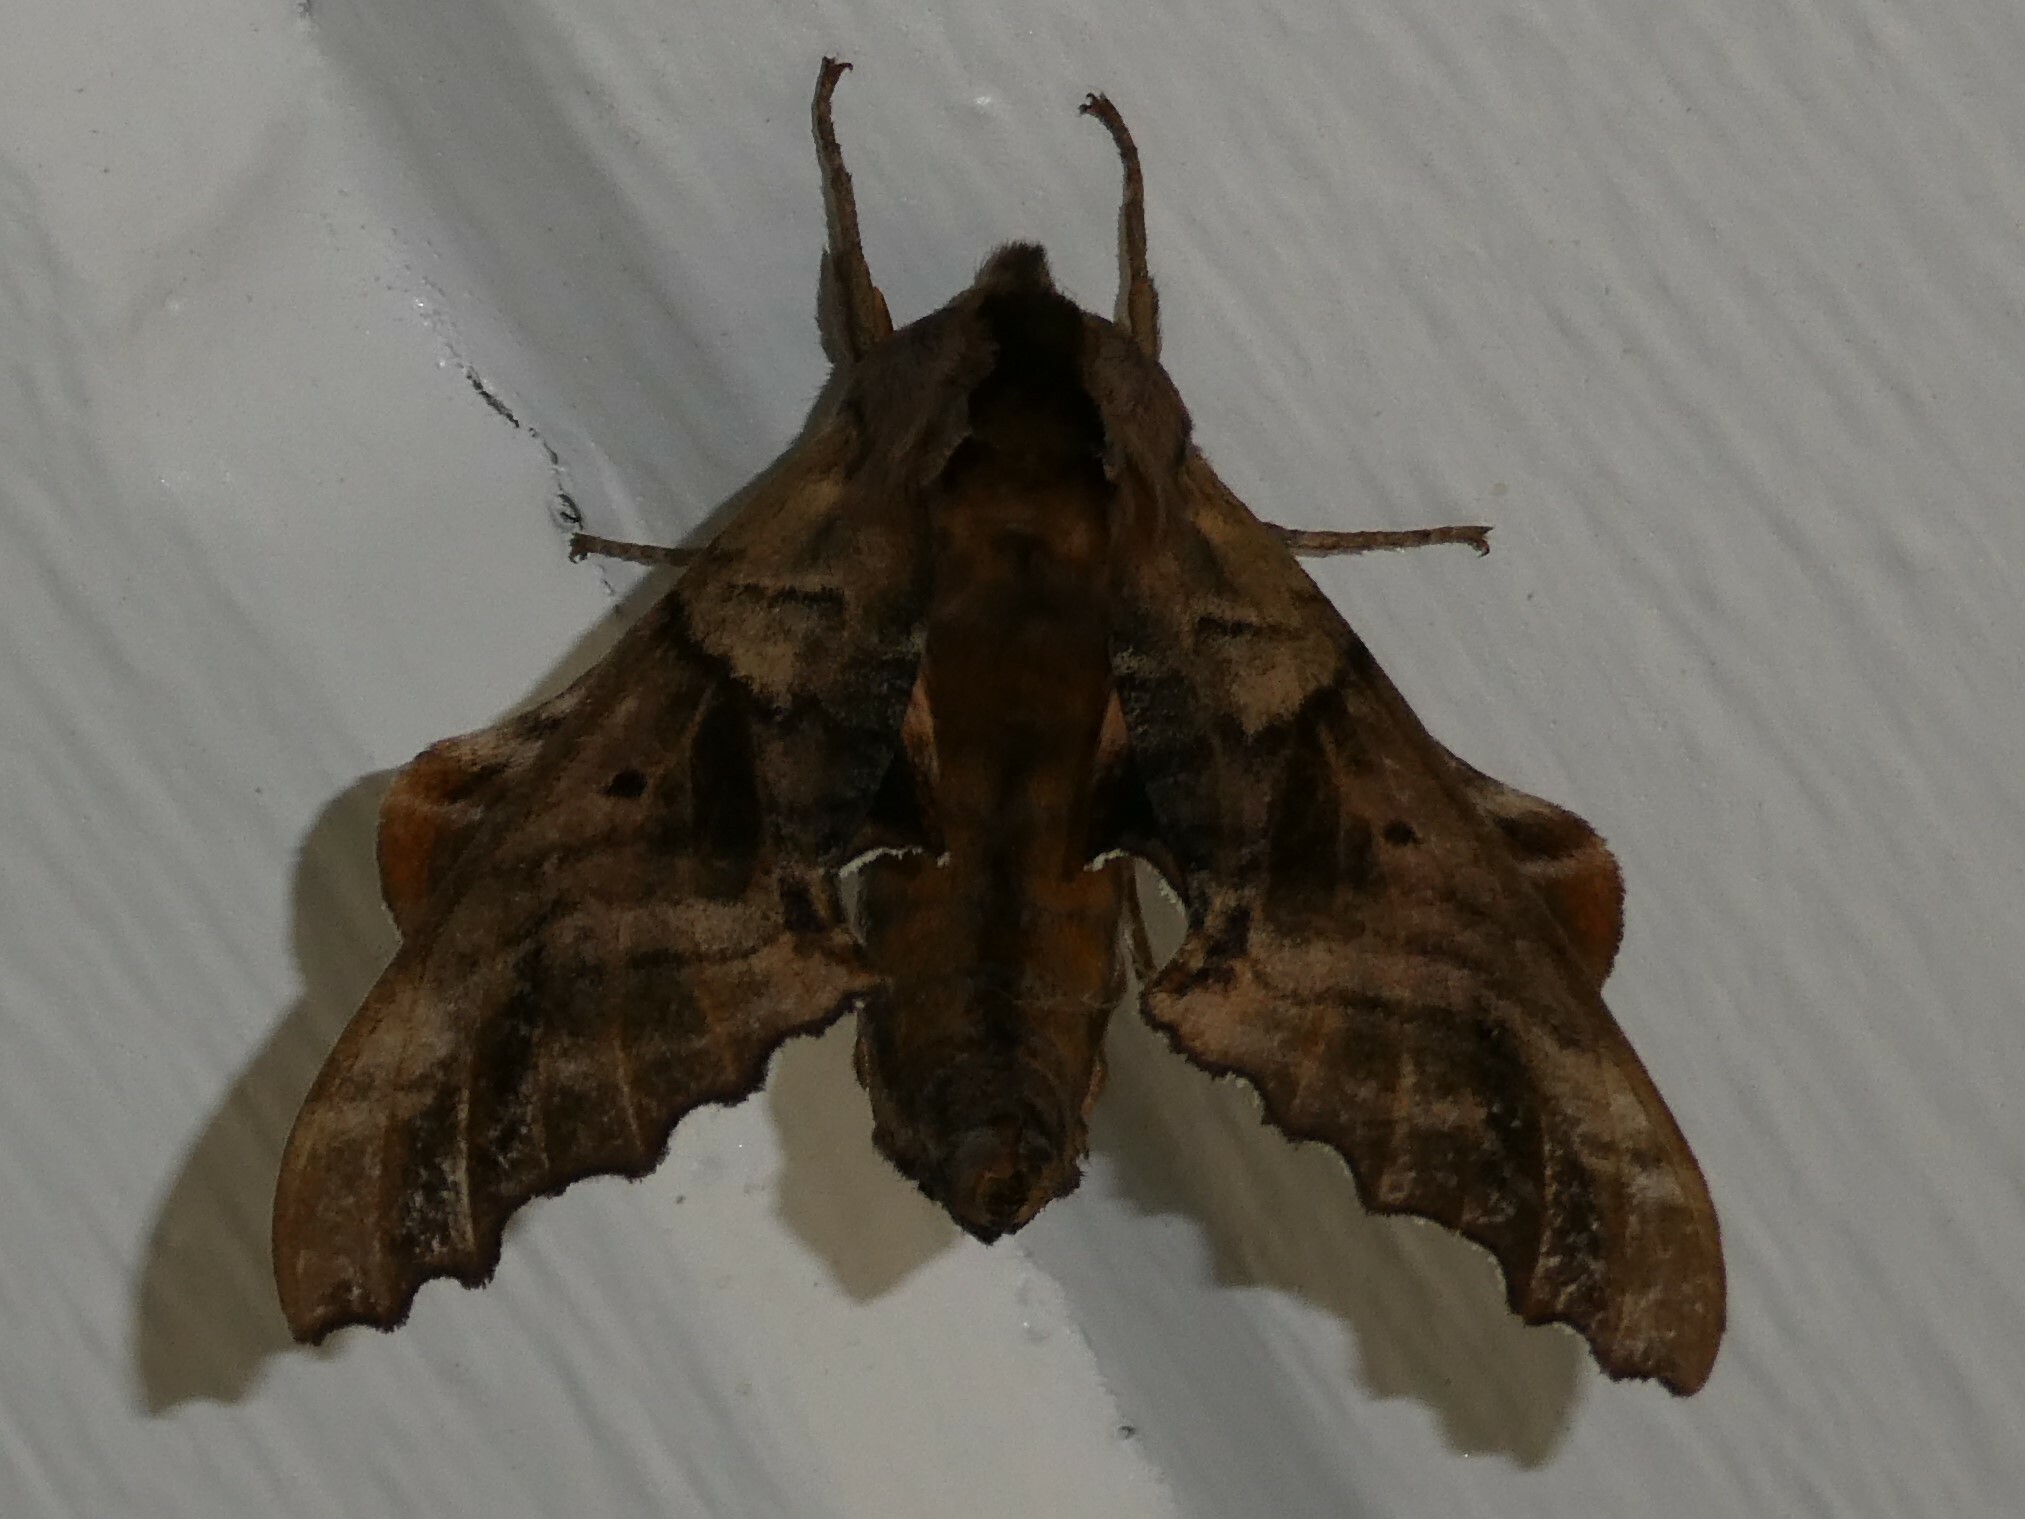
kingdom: Animalia
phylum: Arthropoda
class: Insecta
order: Lepidoptera
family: Sphingidae
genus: Paonias
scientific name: Paonias excaecata
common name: Blind-eyed sphinx
